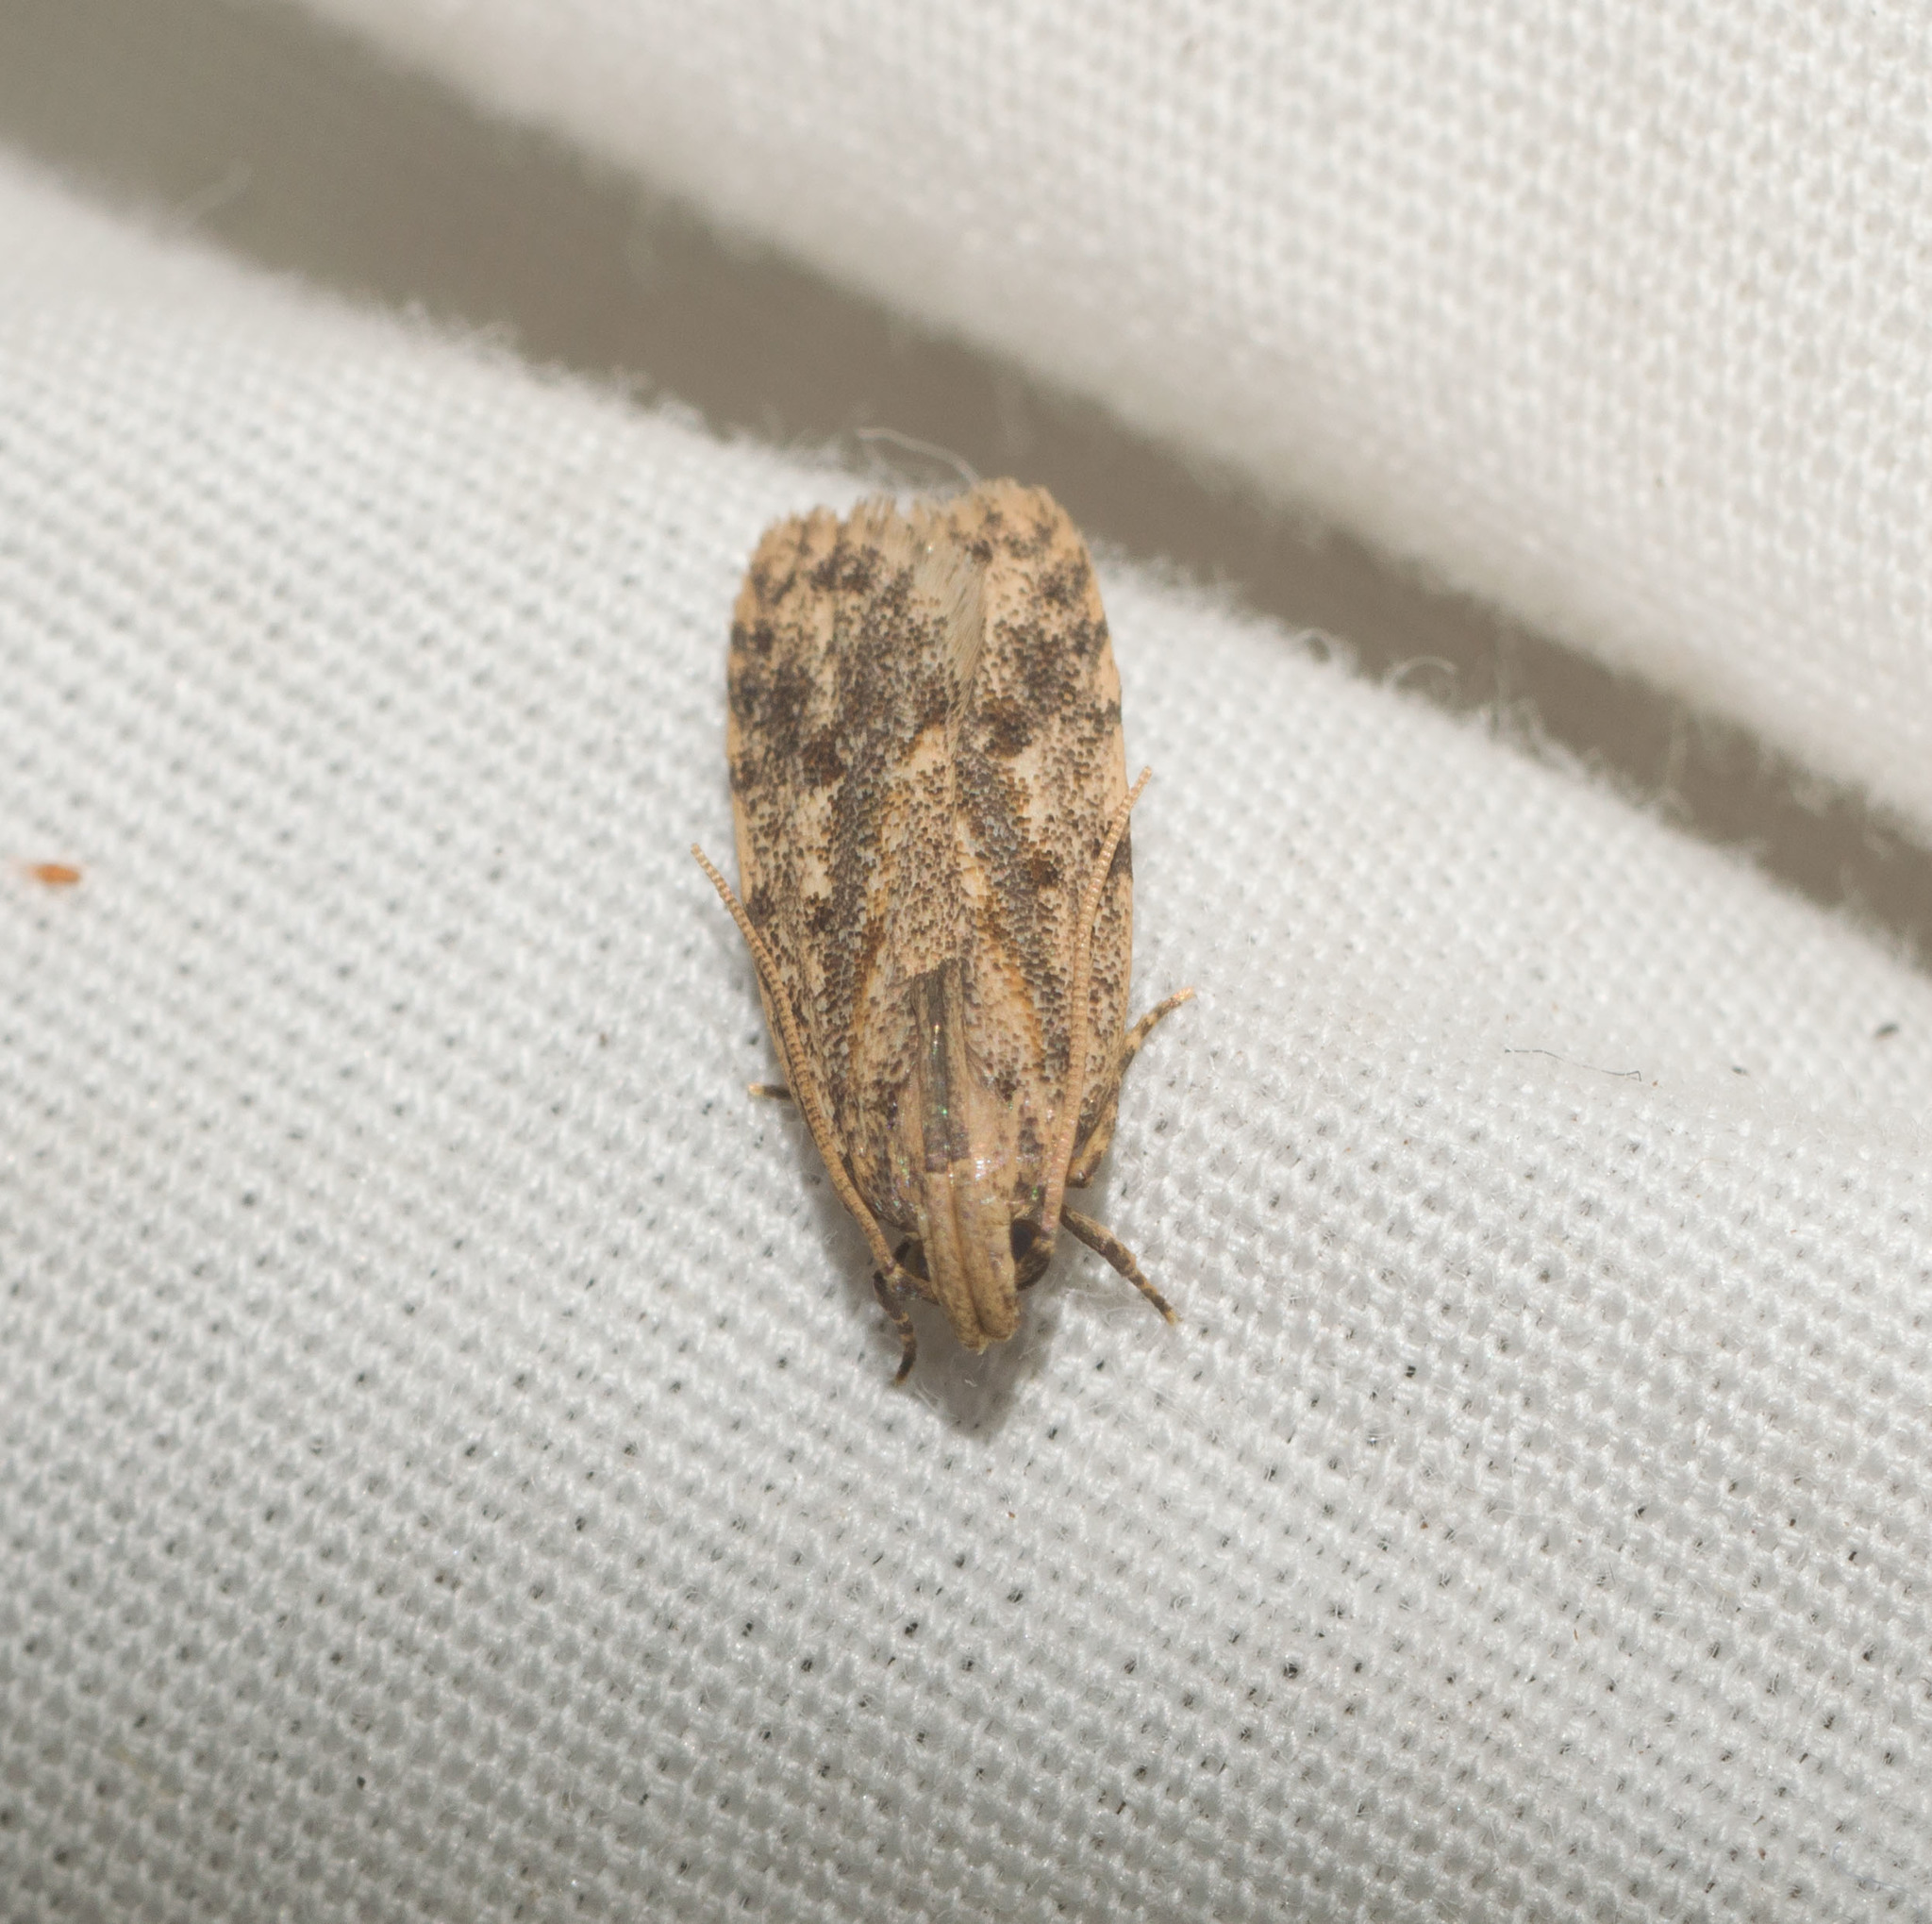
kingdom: Animalia
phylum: Arthropoda
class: Insecta
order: Lepidoptera
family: Autostichidae
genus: Stoeberhinus
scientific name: Stoeberhinus testaceus
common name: Moth
